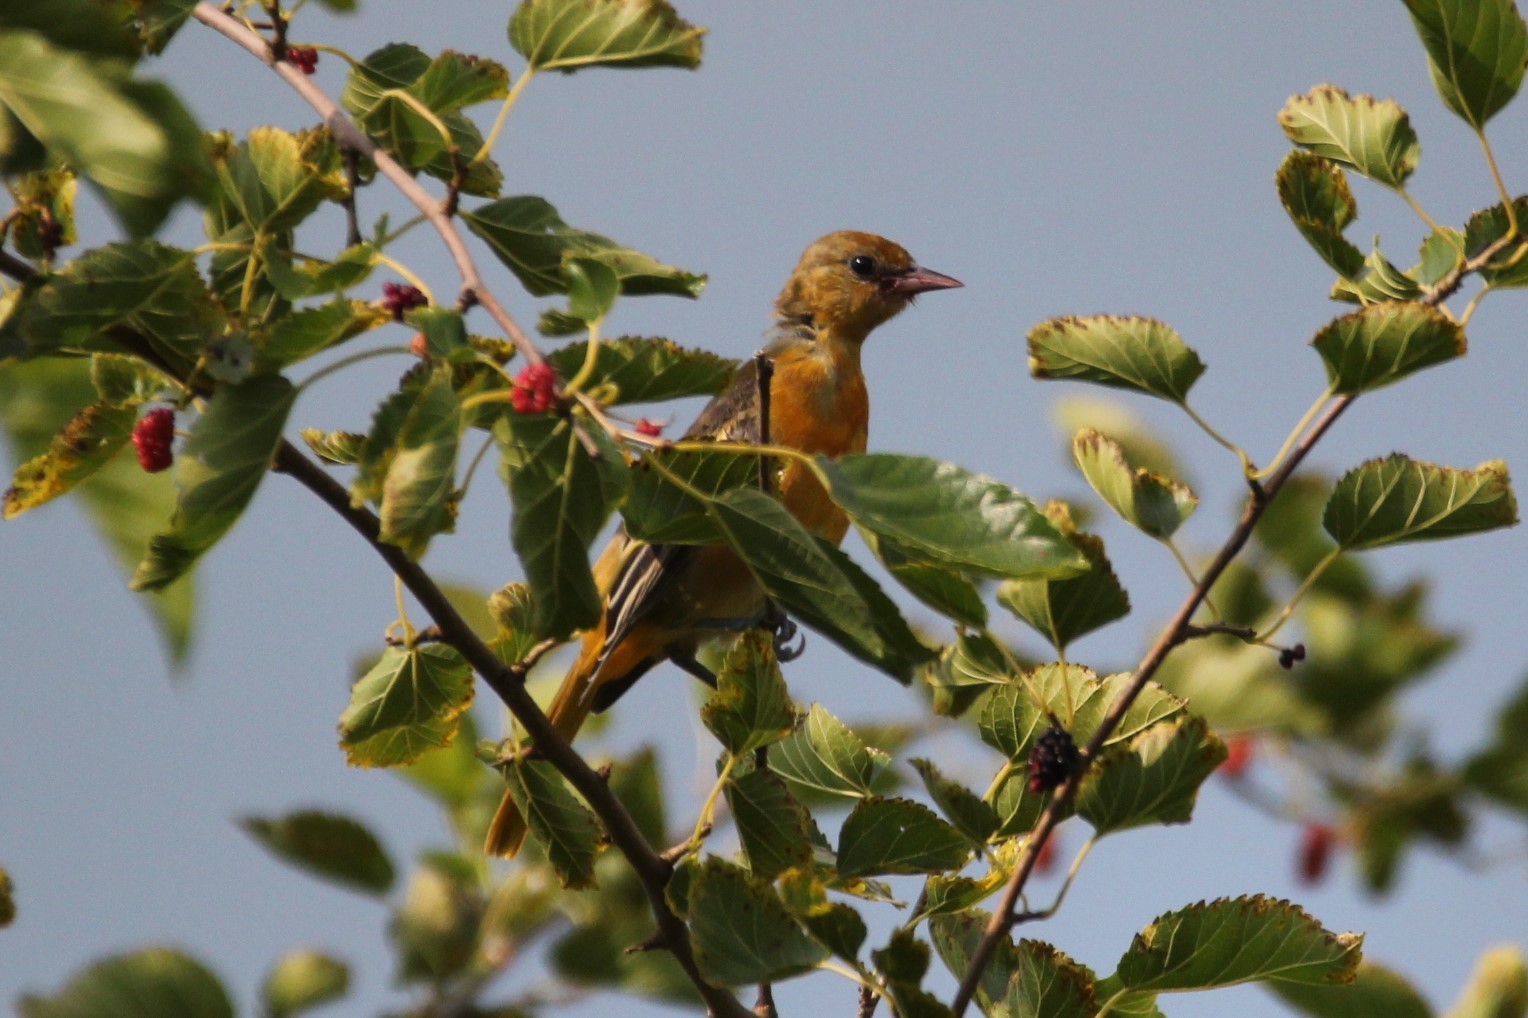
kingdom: Animalia
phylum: Chordata
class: Aves
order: Passeriformes
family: Icteridae
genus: Icterus
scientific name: Icterus galbula
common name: Baltimore oriole
